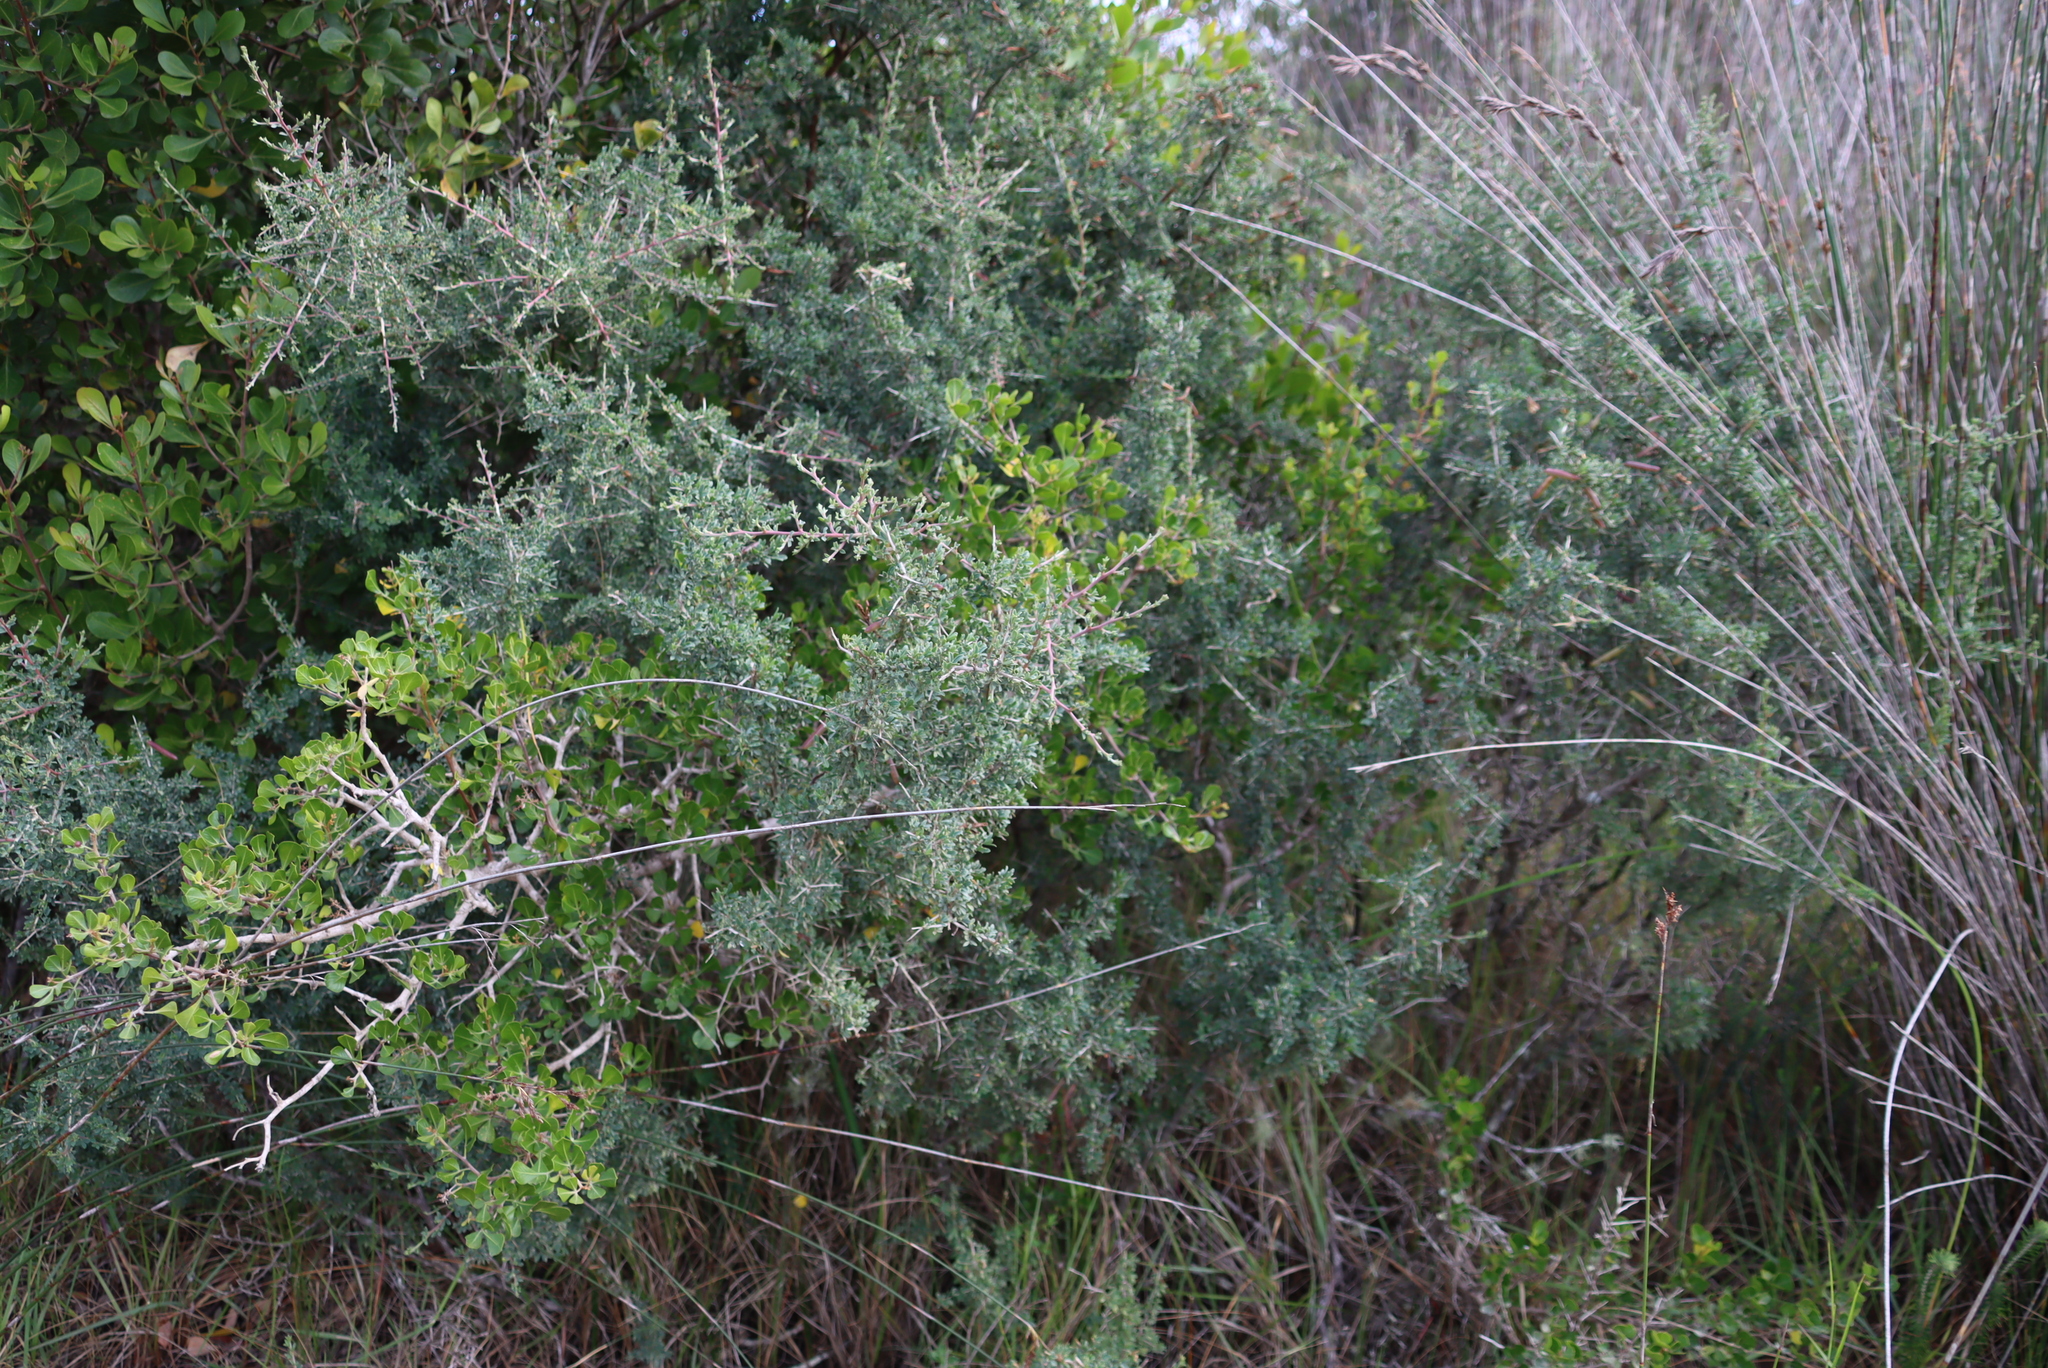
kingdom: Plantae
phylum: Tracheophyta
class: Magnoliopsida
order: Fabales
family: Fabaceae
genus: Indigofera
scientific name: Indigofera nigromontana
